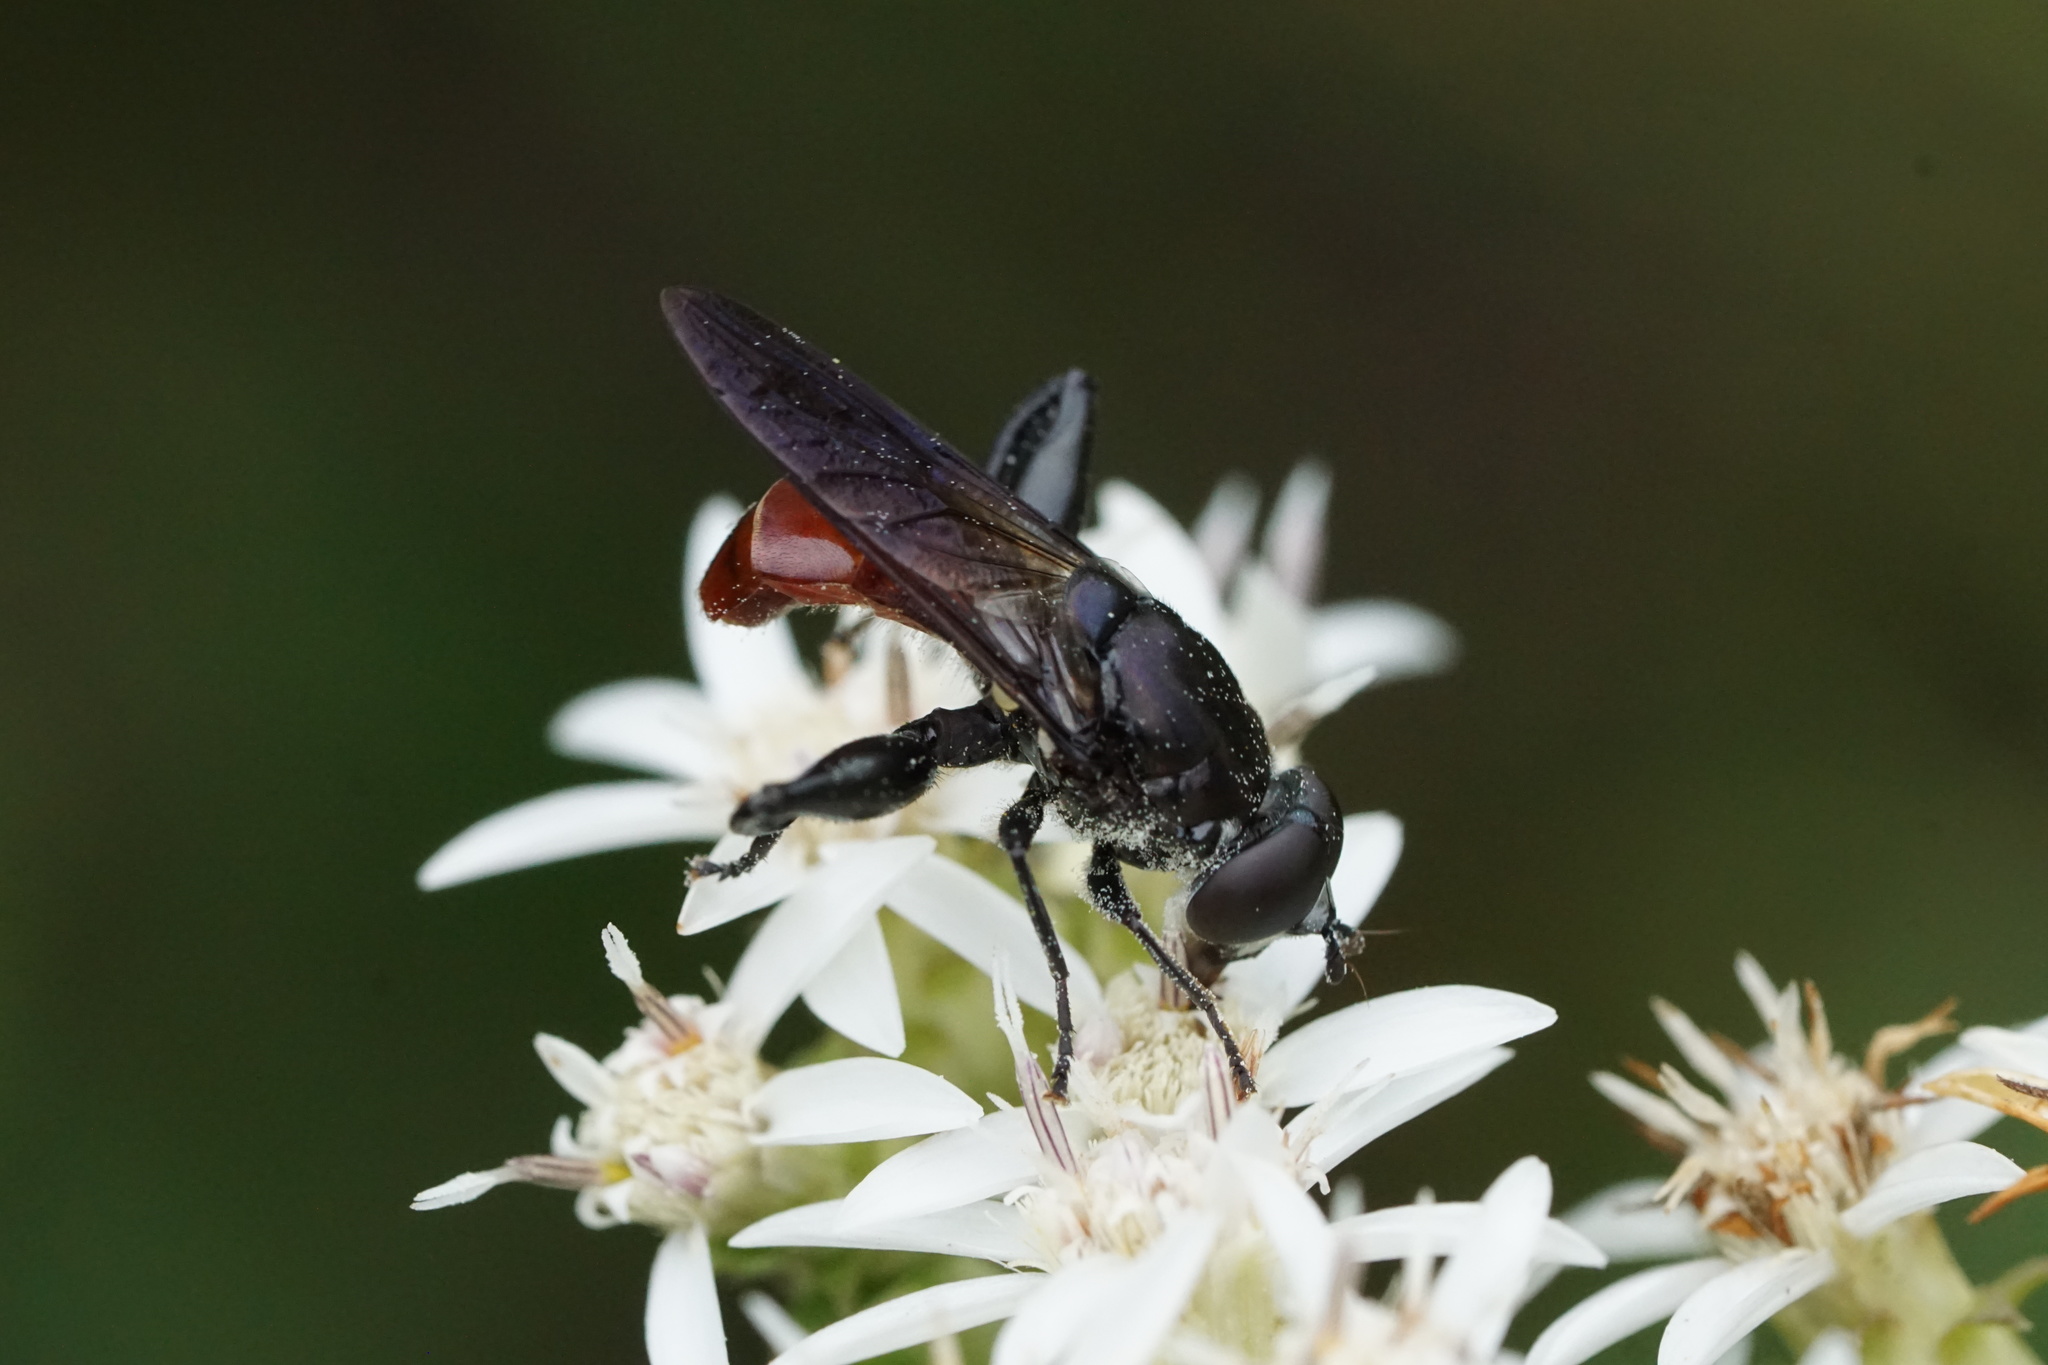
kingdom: Animalia
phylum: Arthropoda
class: Insecta
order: Diptera
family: Syrphidae
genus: Chalcosyrphus
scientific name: Chalcosyrphus piger
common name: Short-haired leafwalker
